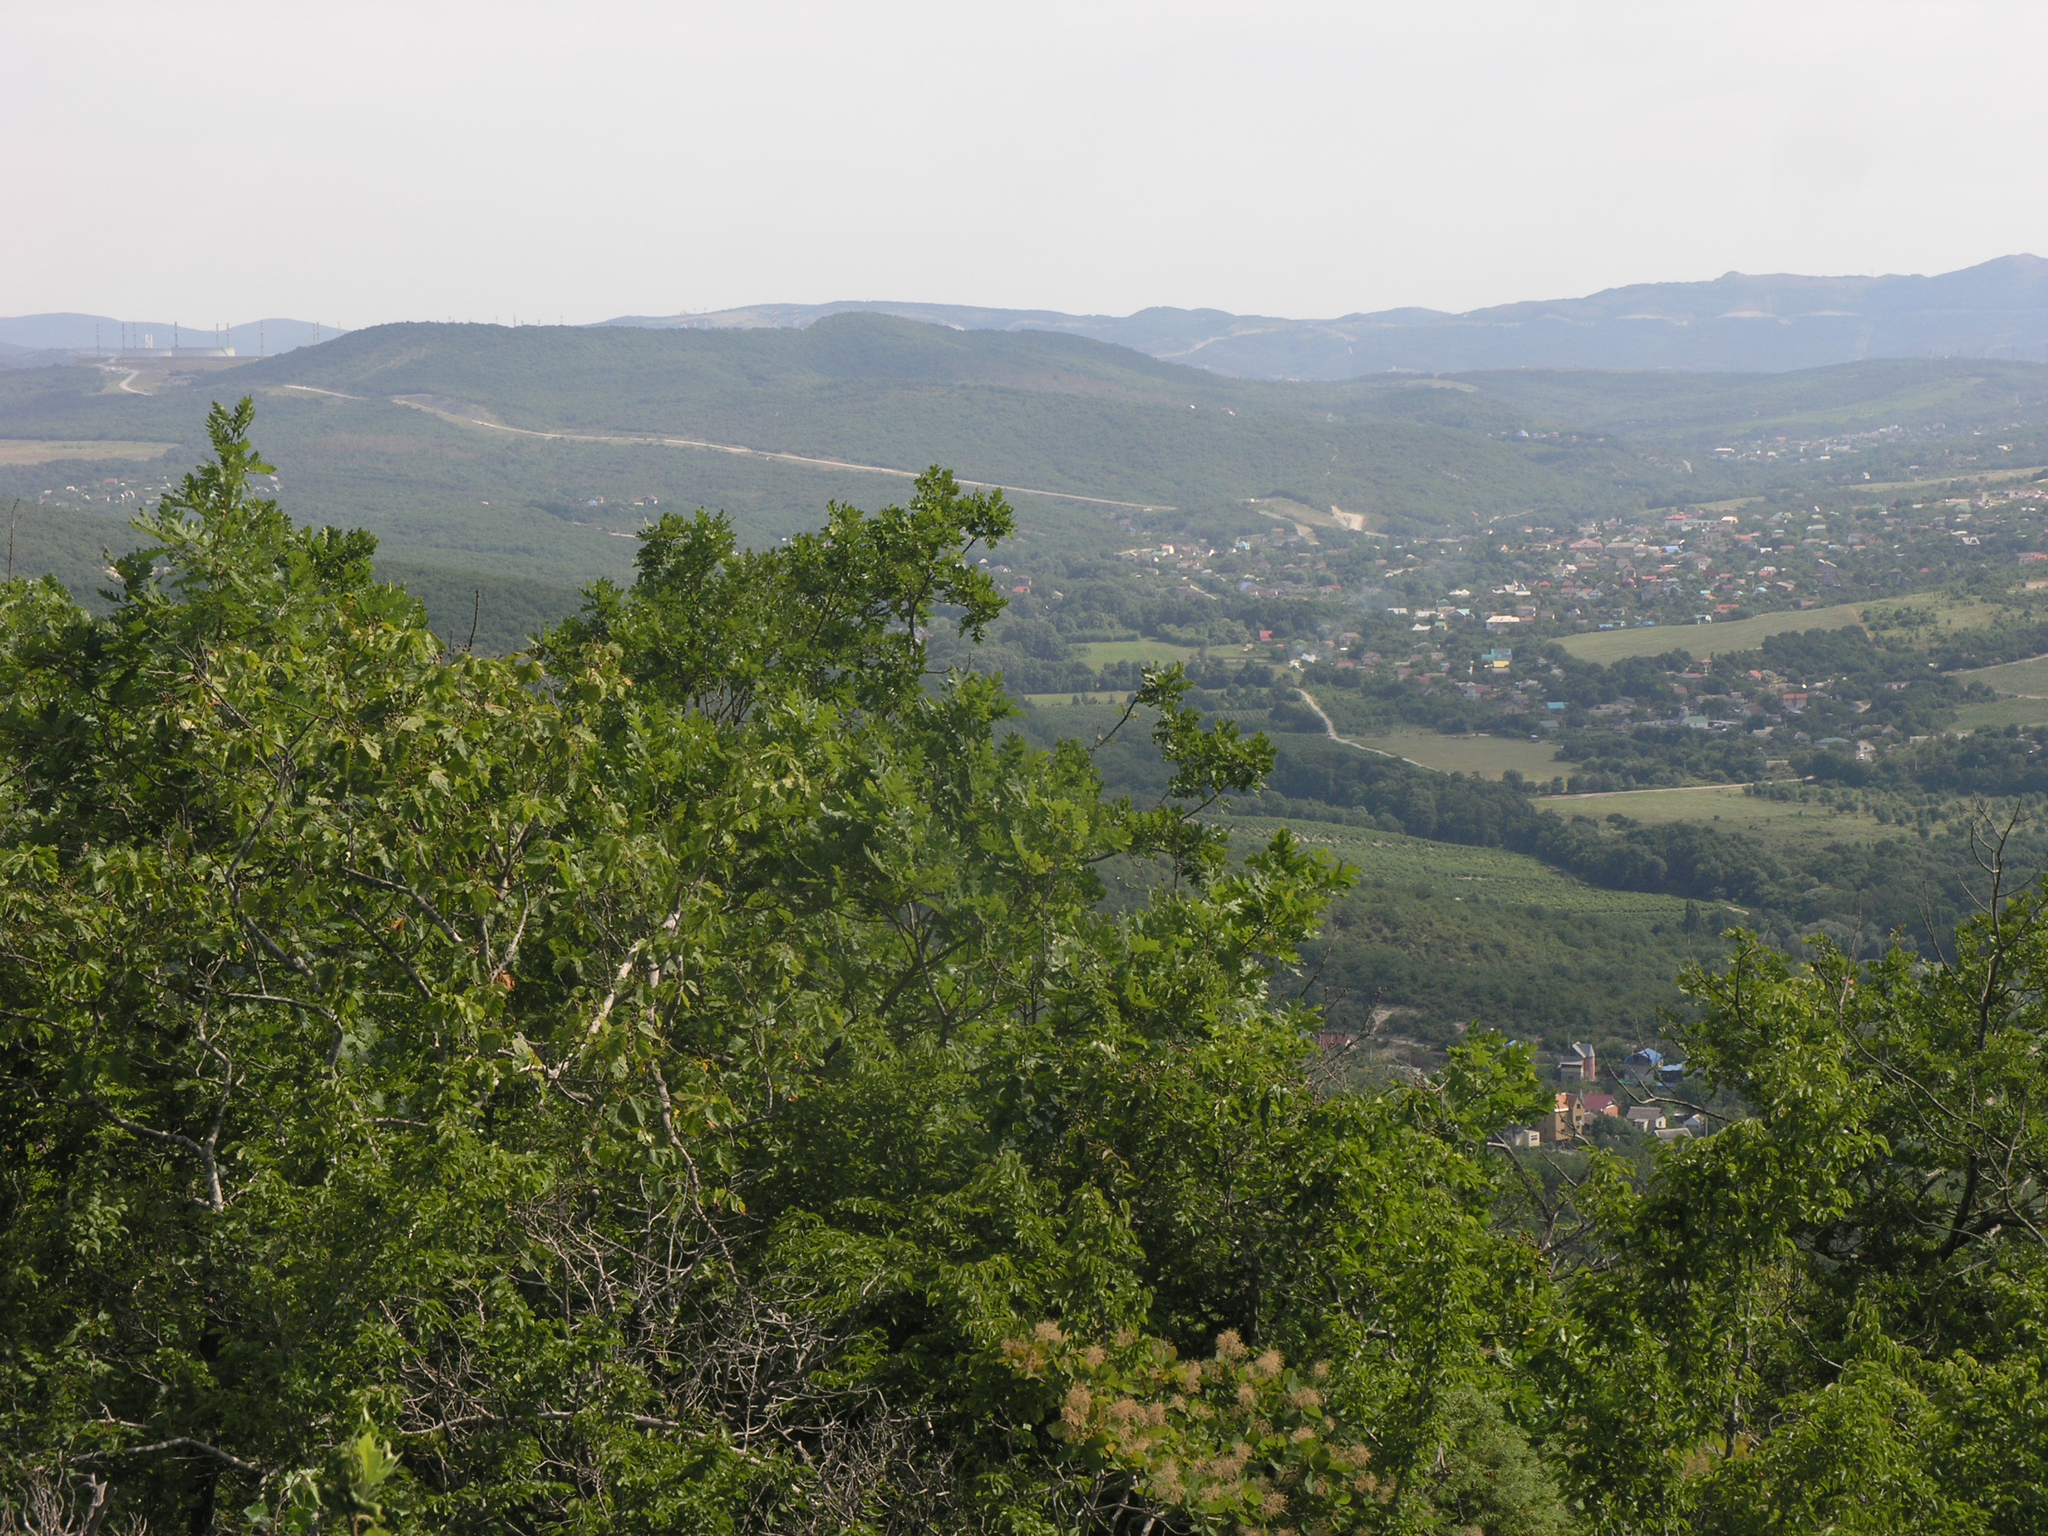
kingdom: Plantae
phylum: Tracheophyta
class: Magnoliopsida
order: Fagales
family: Fagaceae
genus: Quercus
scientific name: Quercus pubescens
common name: Downy oak
